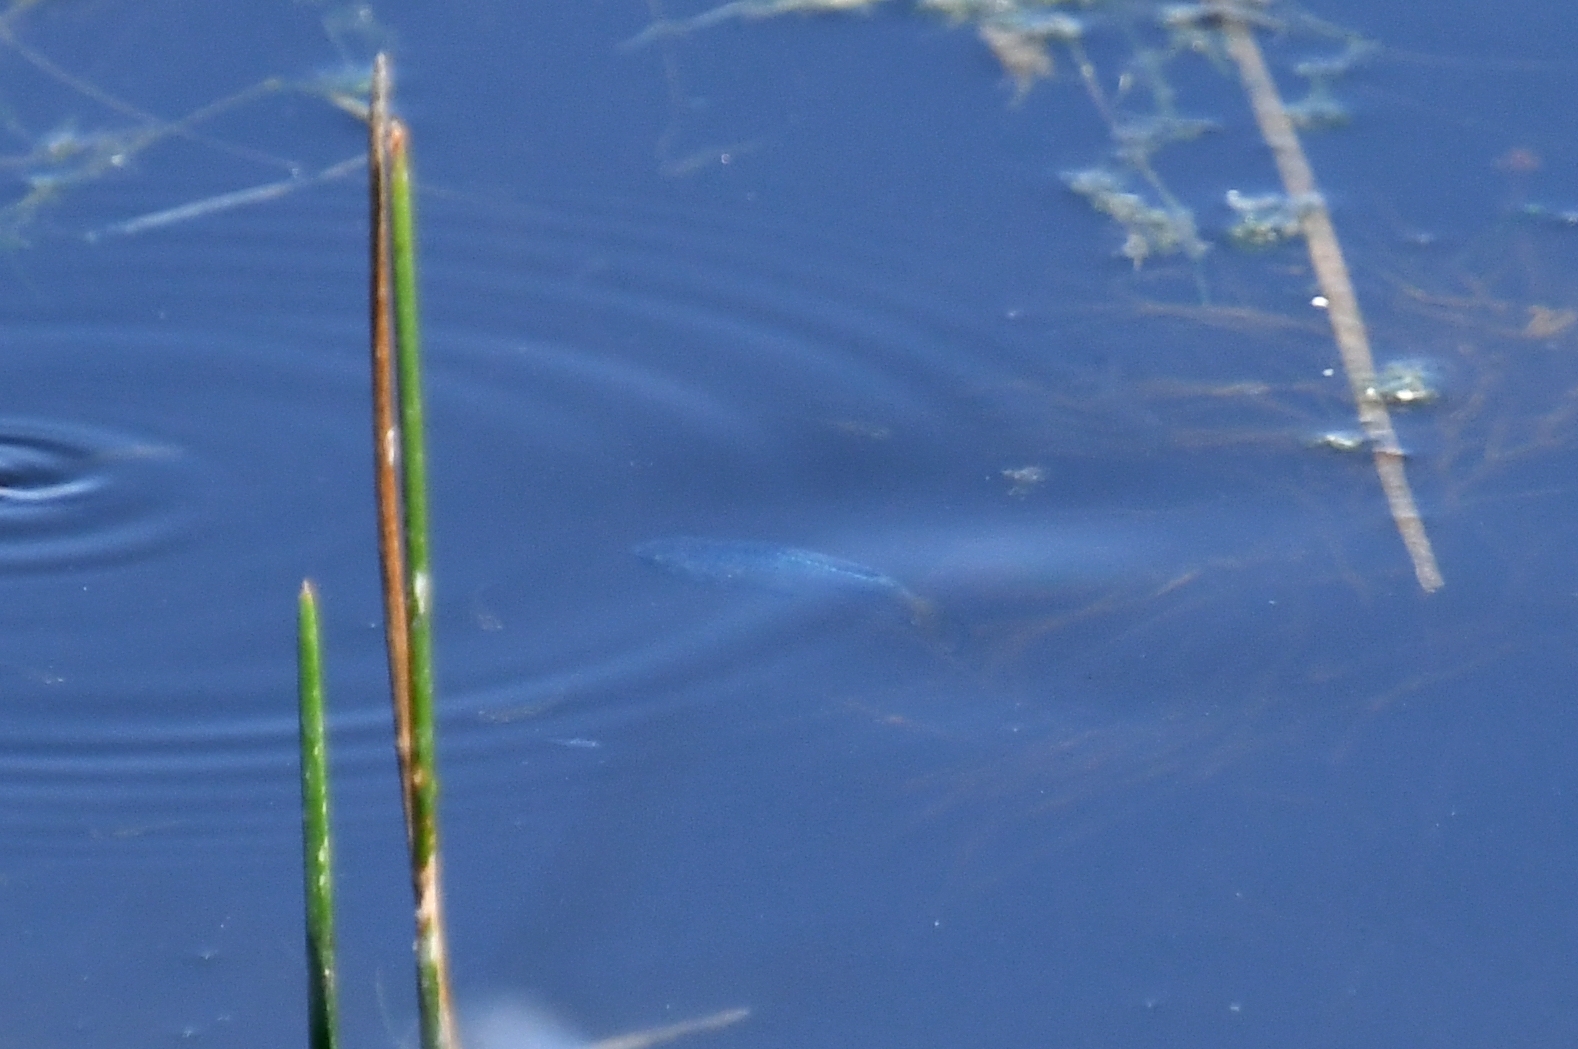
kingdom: Animalia
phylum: Chordata
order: Cyprinodontiformes
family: Cyprinodontidae
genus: Cyprinodon
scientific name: Cyprinodon macularius
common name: Desert pupfish
